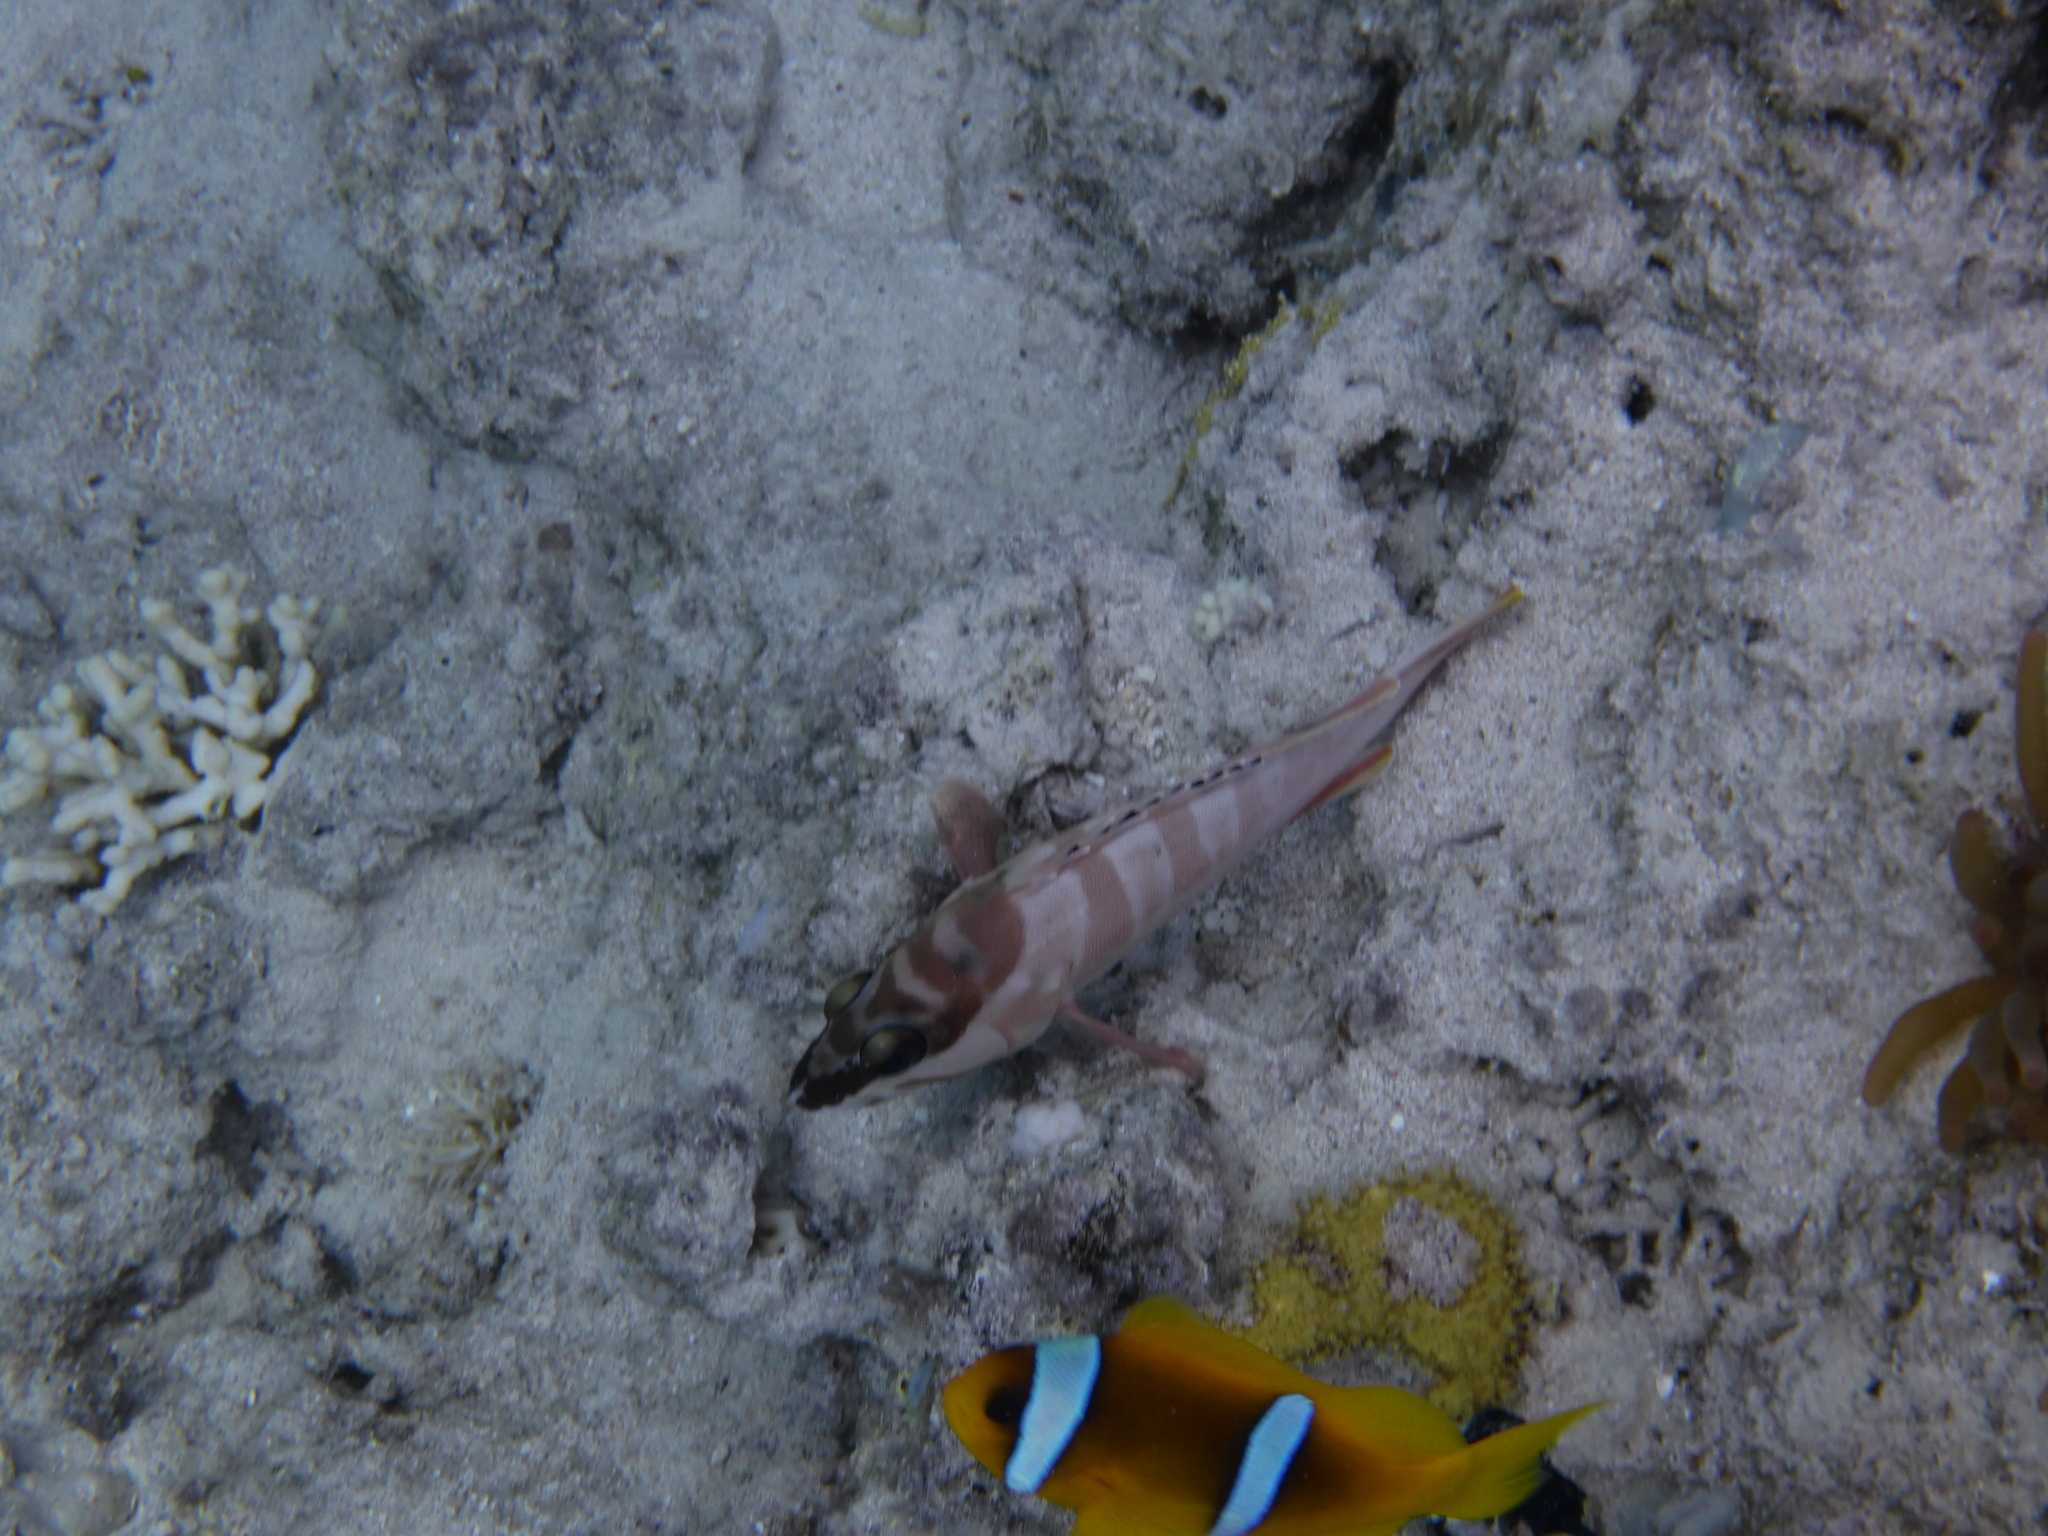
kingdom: Animalia
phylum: Chordata
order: Perciformes
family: Serranidae
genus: Epinephelus
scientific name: Epinephelus fasciatus
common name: Blacktip grouper
